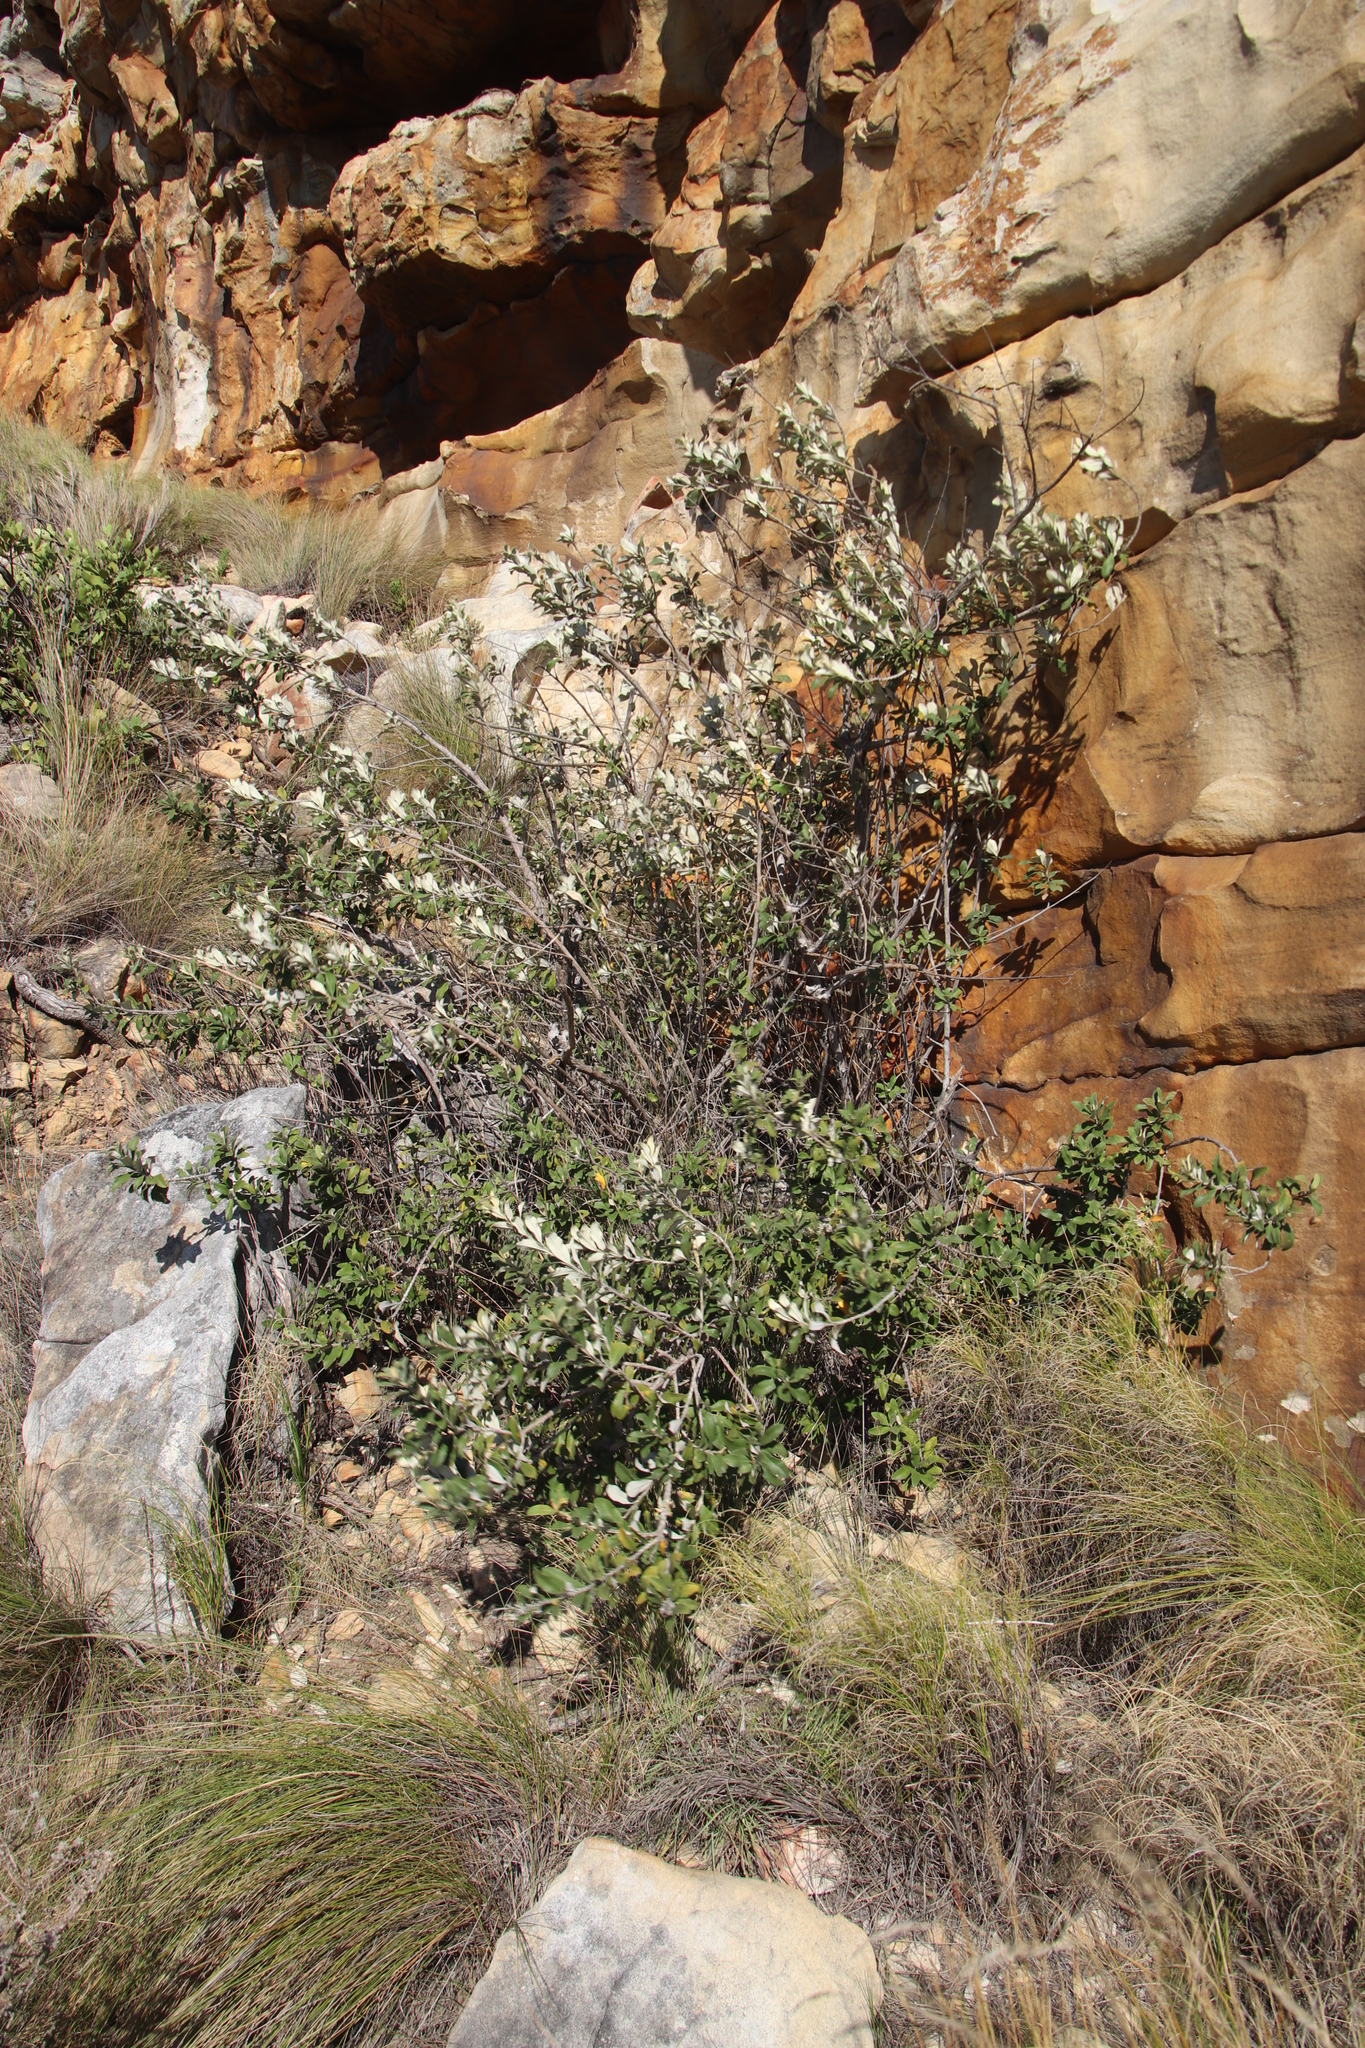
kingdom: Plantae
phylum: Tracheophyta
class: Magnoliopsida
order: Asterales
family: Asteraceae
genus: Tarchonanthus
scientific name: Tarchonanthus littoralis
